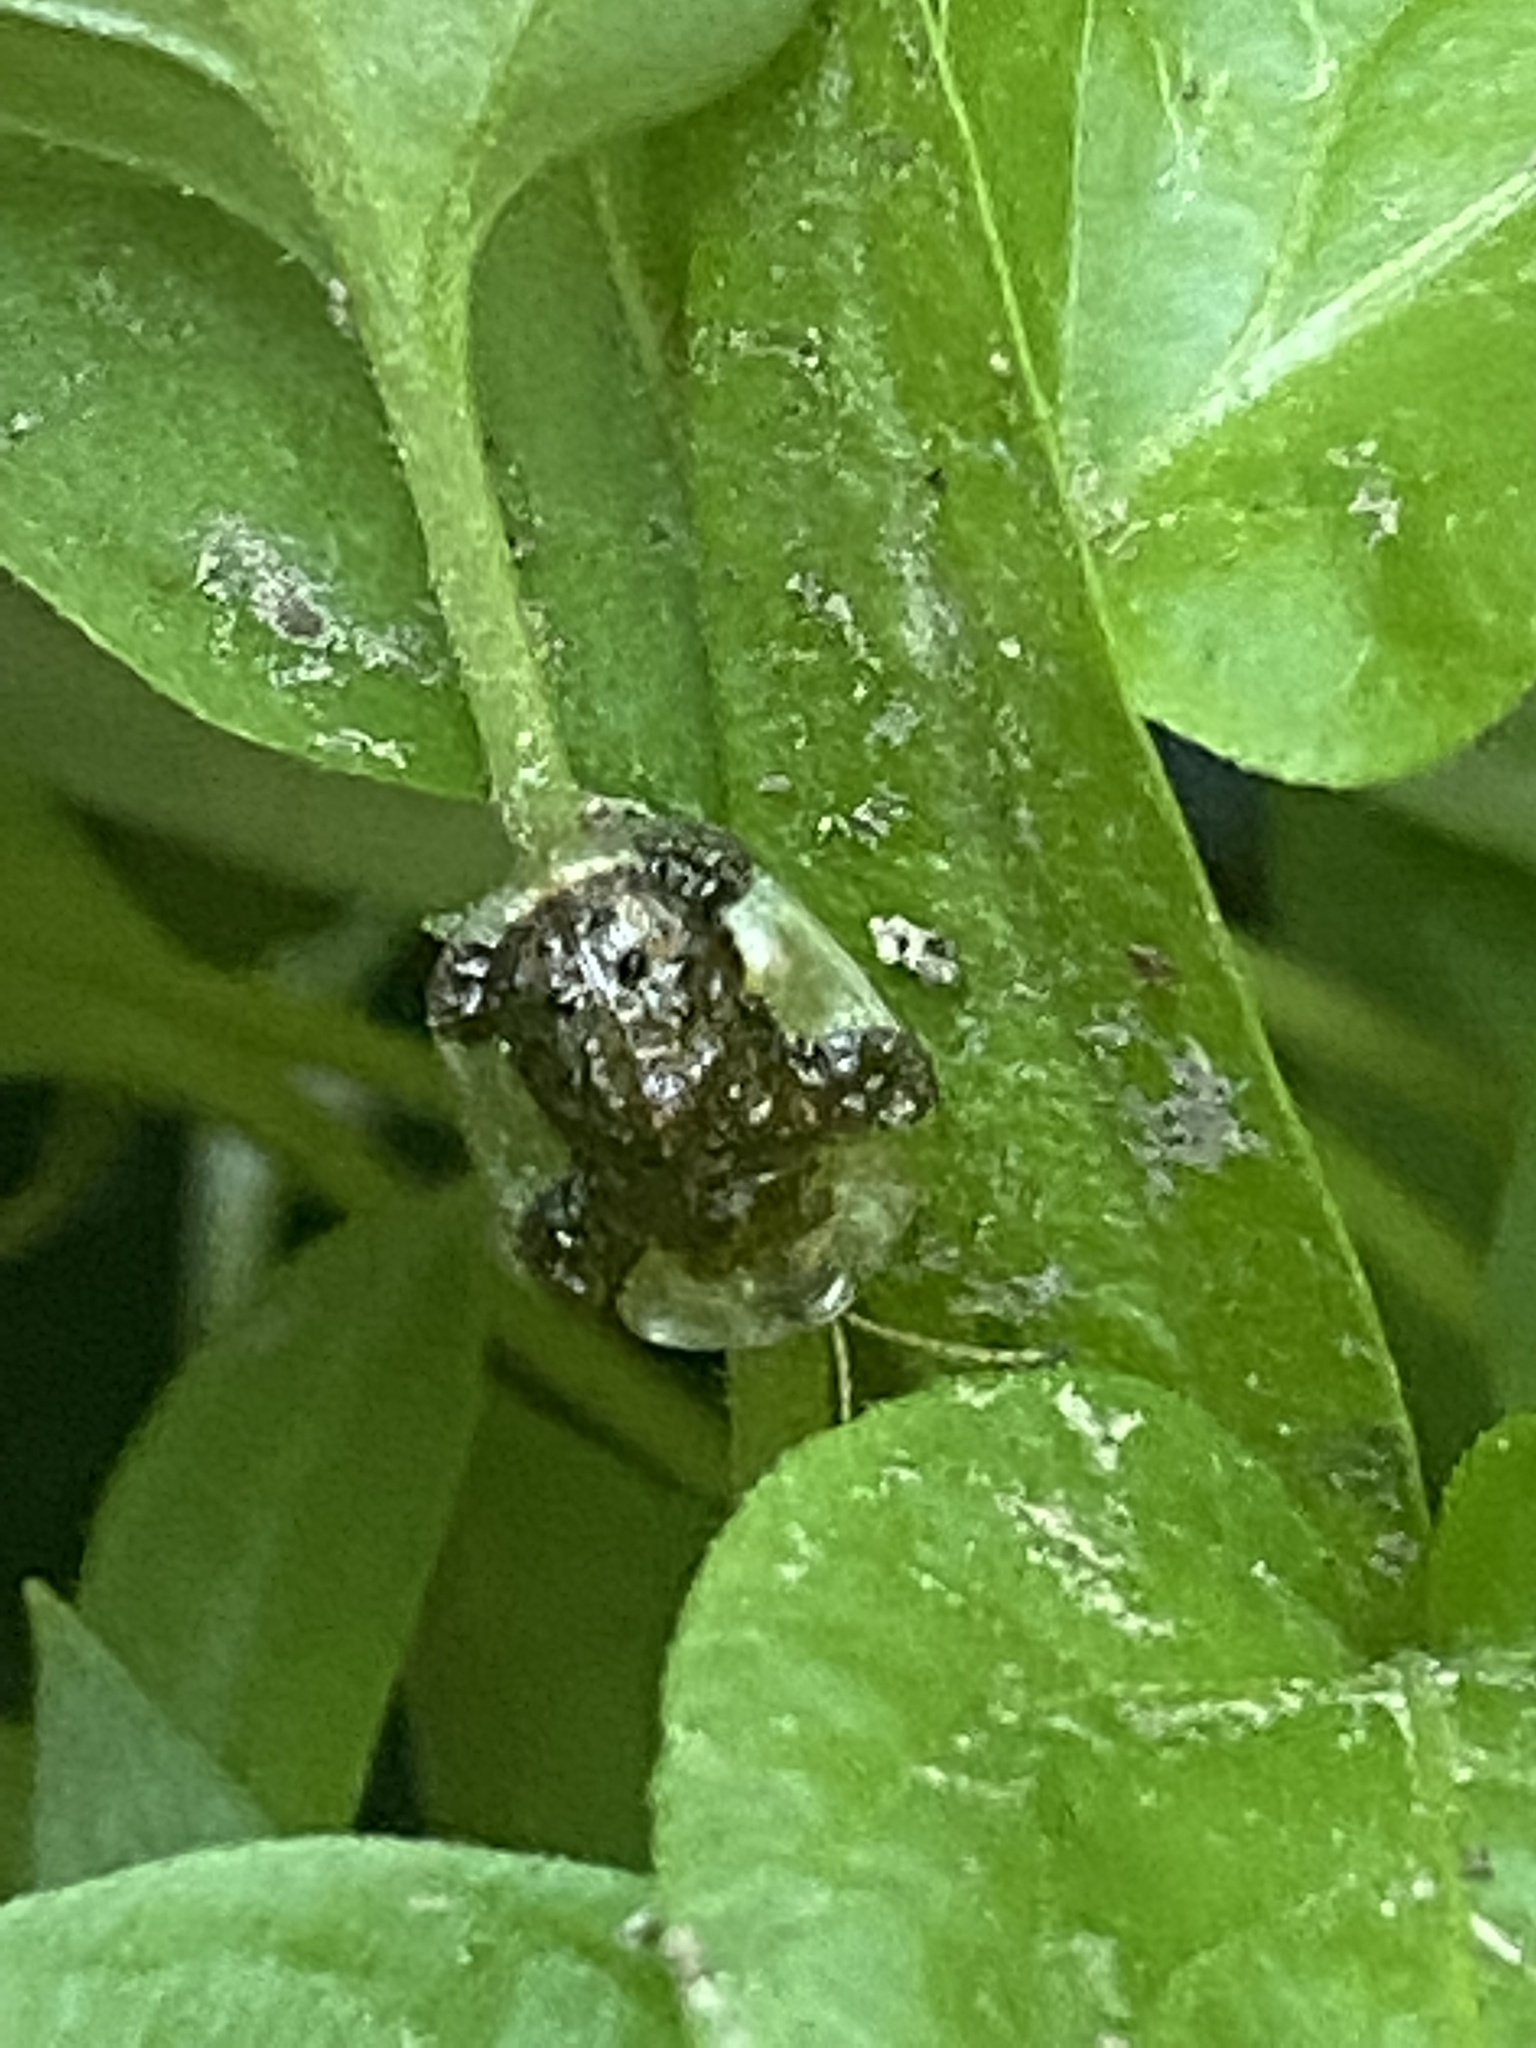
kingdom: Animalia
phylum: Arthropoda
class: Insecta
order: Coleoptera
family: Chrysomelidae
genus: Helocassis
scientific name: Helocassis clavata
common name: Clavate tortoise beetle
